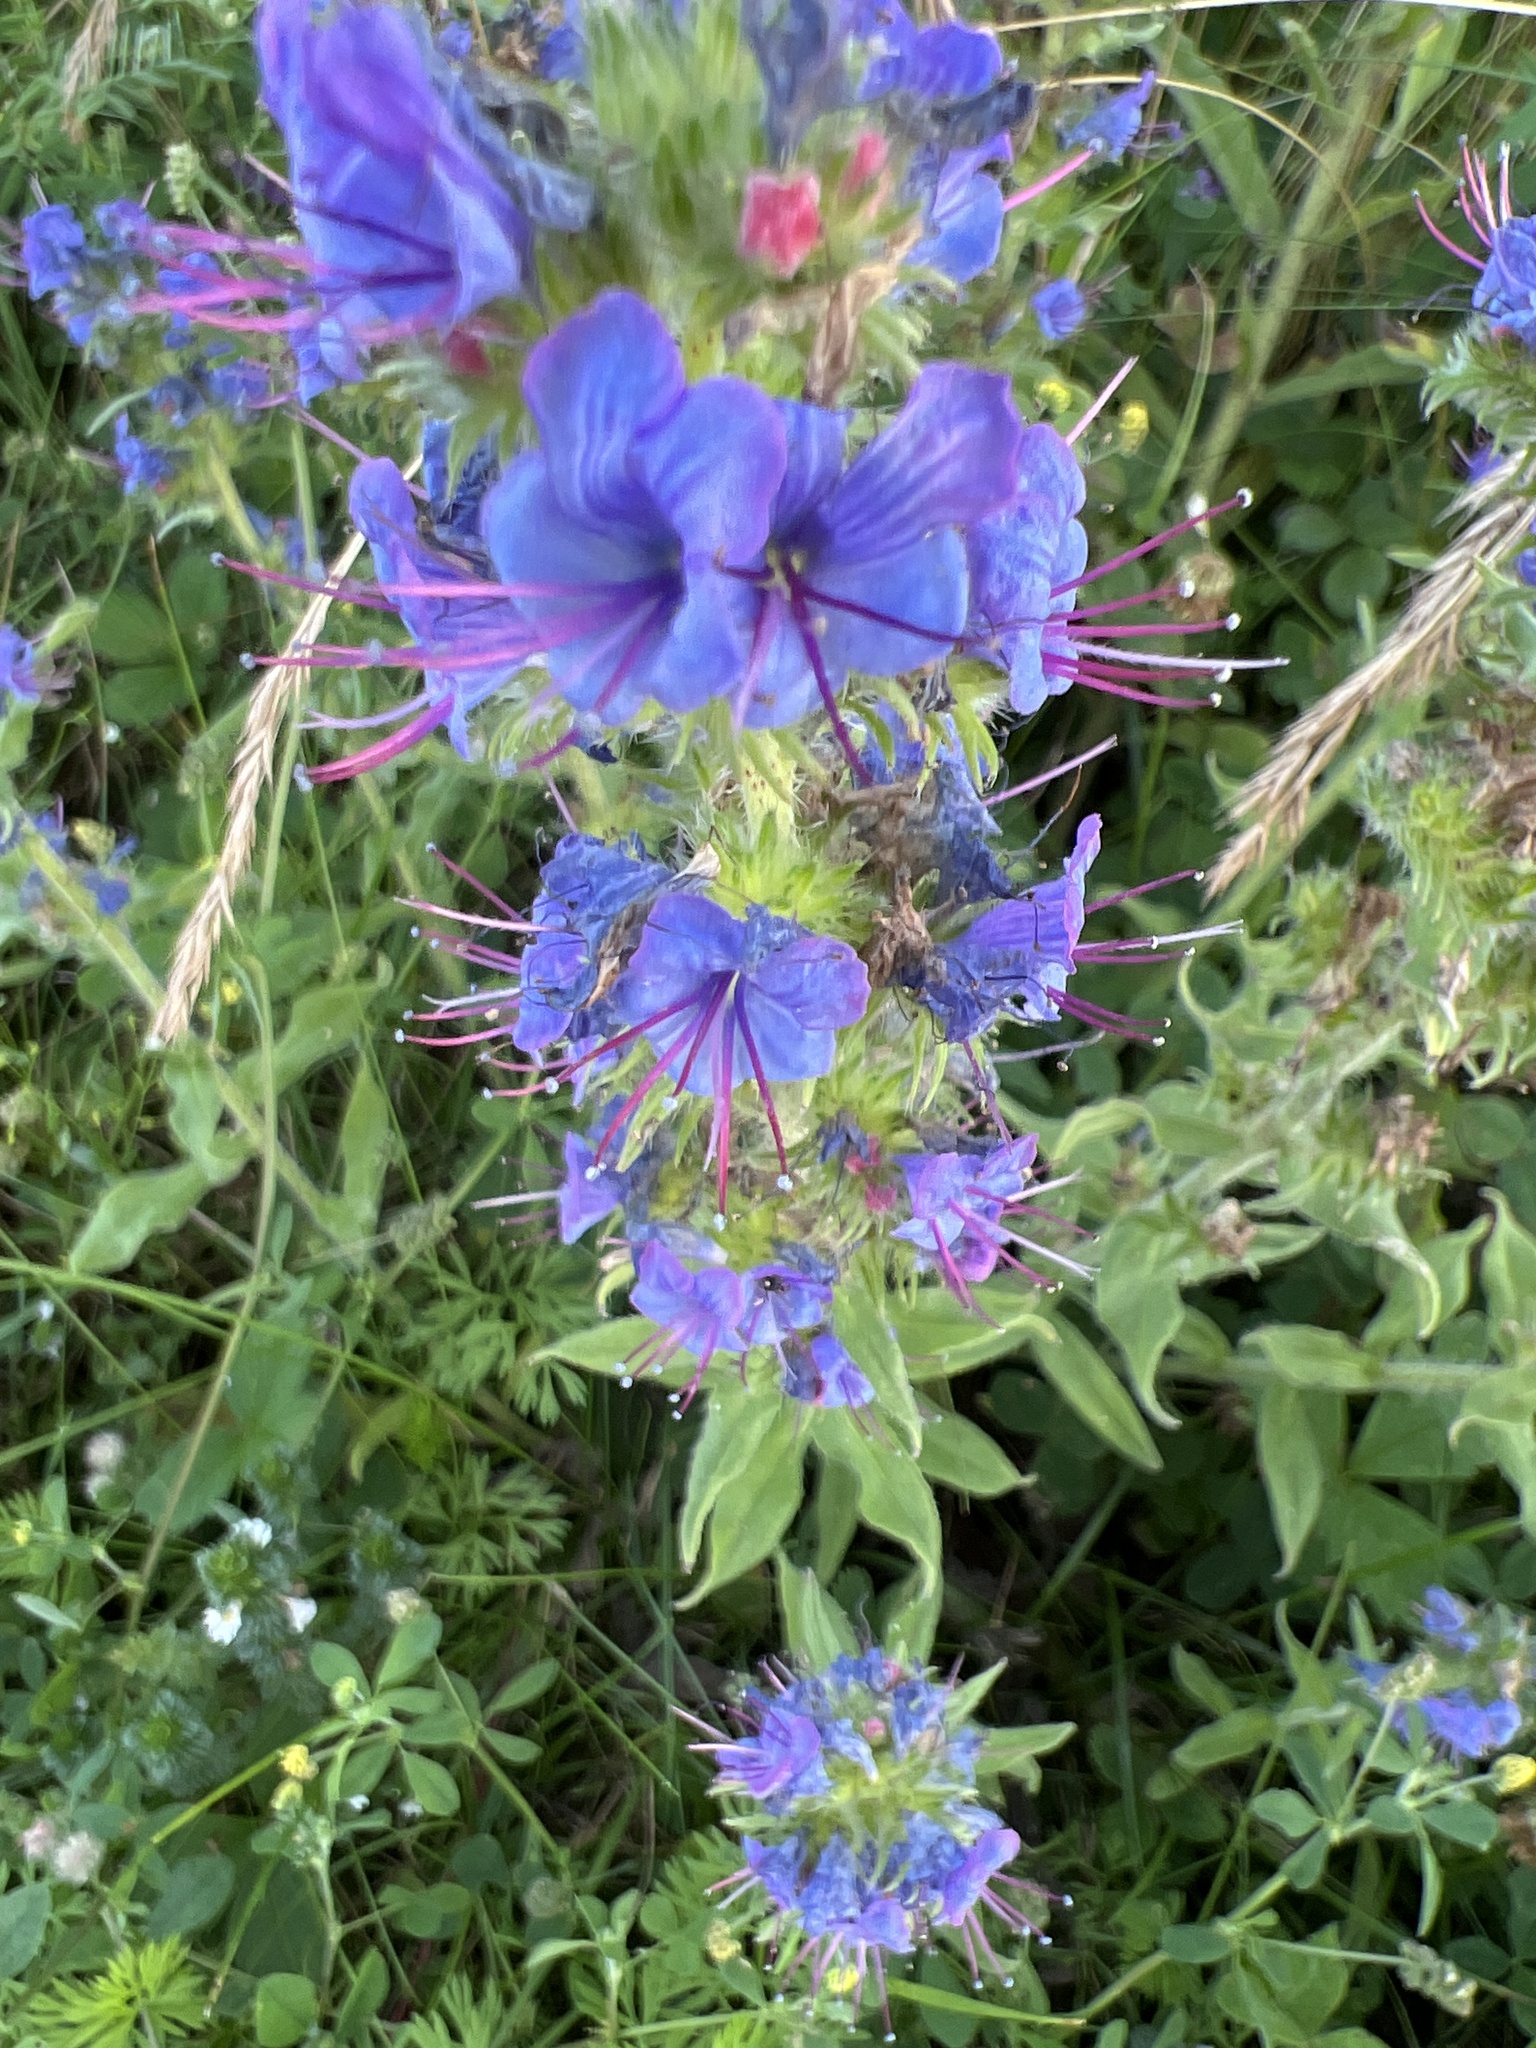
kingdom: Plantae
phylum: Tracheophyta
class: Magnoliopsida
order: Boraginales
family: Boraginaceae
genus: Echium
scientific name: Echium vulgare
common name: Common viper's bugloss
